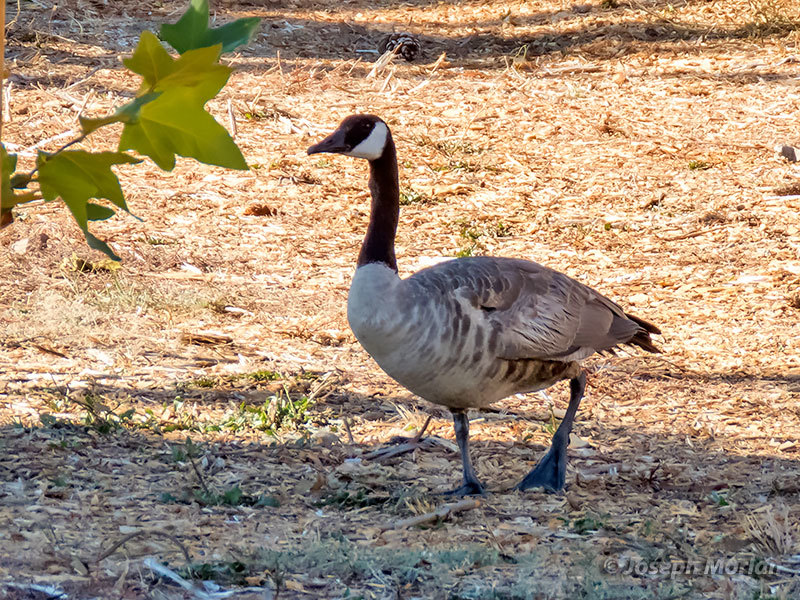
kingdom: Animalia
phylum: Chordata
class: Aves
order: Anseriformes
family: Anatidae
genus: Branta
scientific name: Branta canadensis
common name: Canada goose
